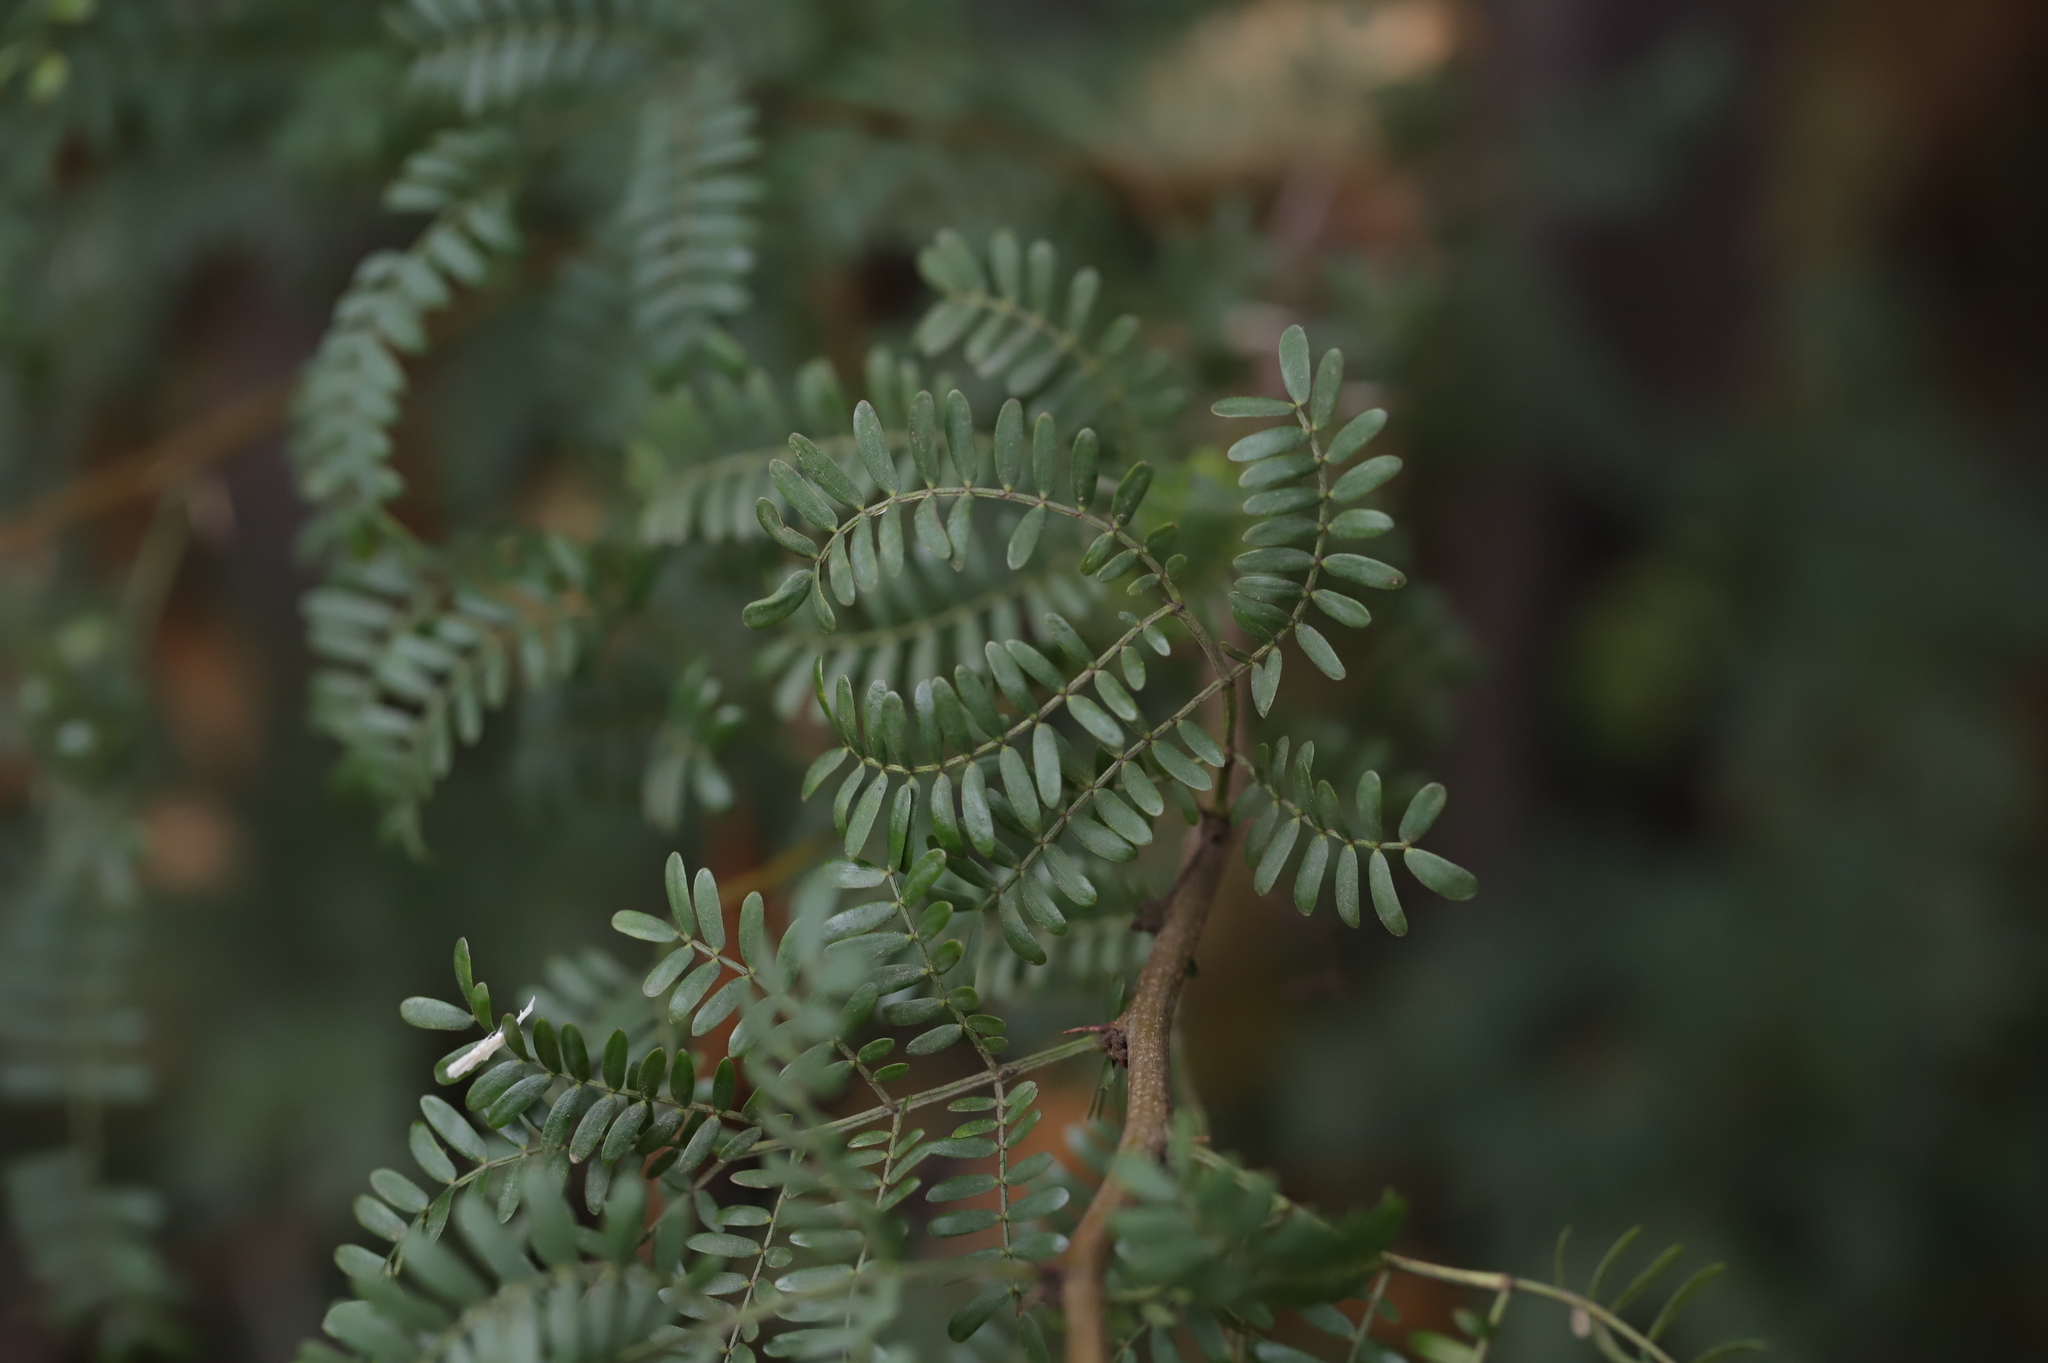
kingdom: Plantae
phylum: Tracheophyta
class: Magnoliopsida
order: Fabales
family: Fabaceae
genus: Vachellia
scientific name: Vachellia karroo
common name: Sweet thorn
